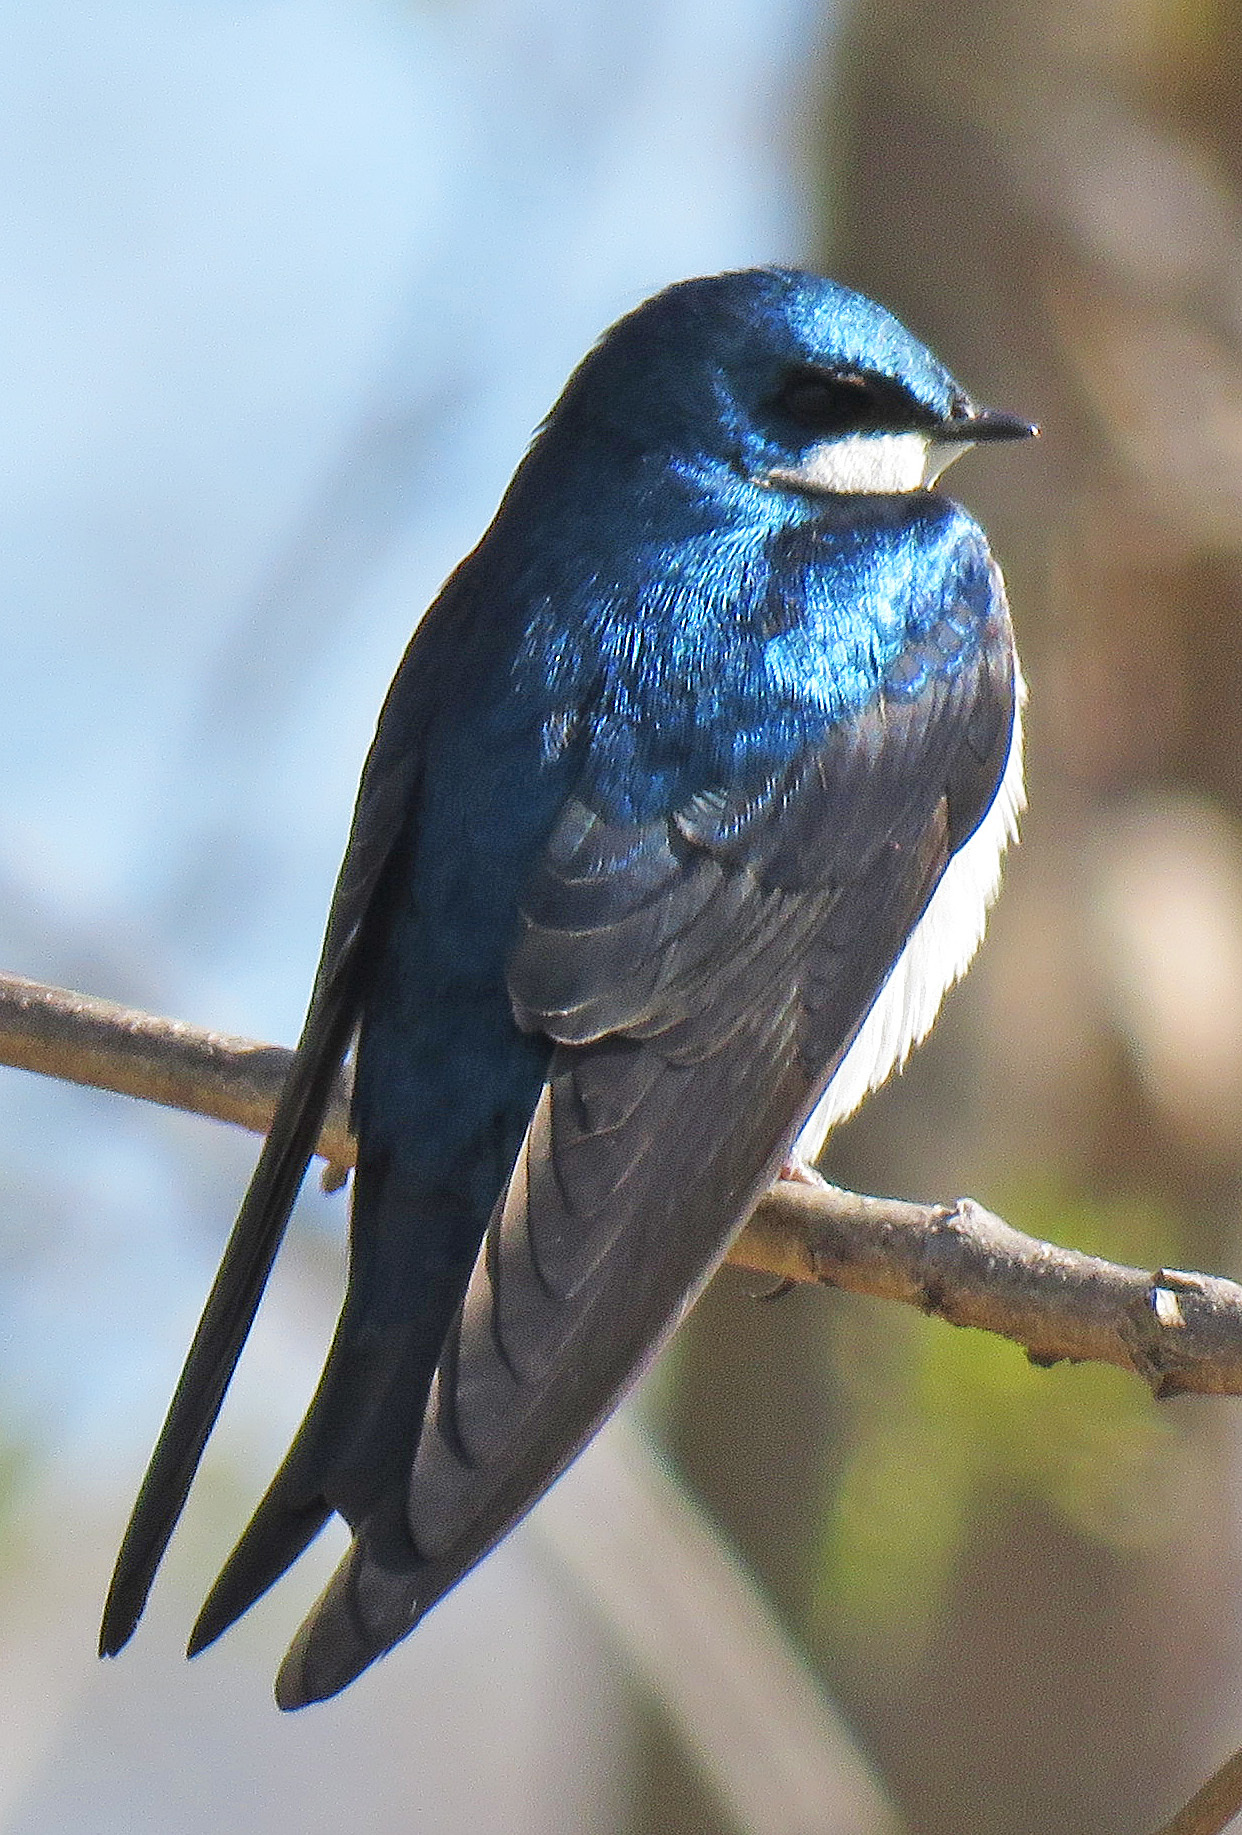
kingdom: Animalia
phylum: Chordata
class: Aves
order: Passeriformes
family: Hirundinidae
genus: Tachycineta
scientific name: Tachycineta bicolor
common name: Tree swallow
